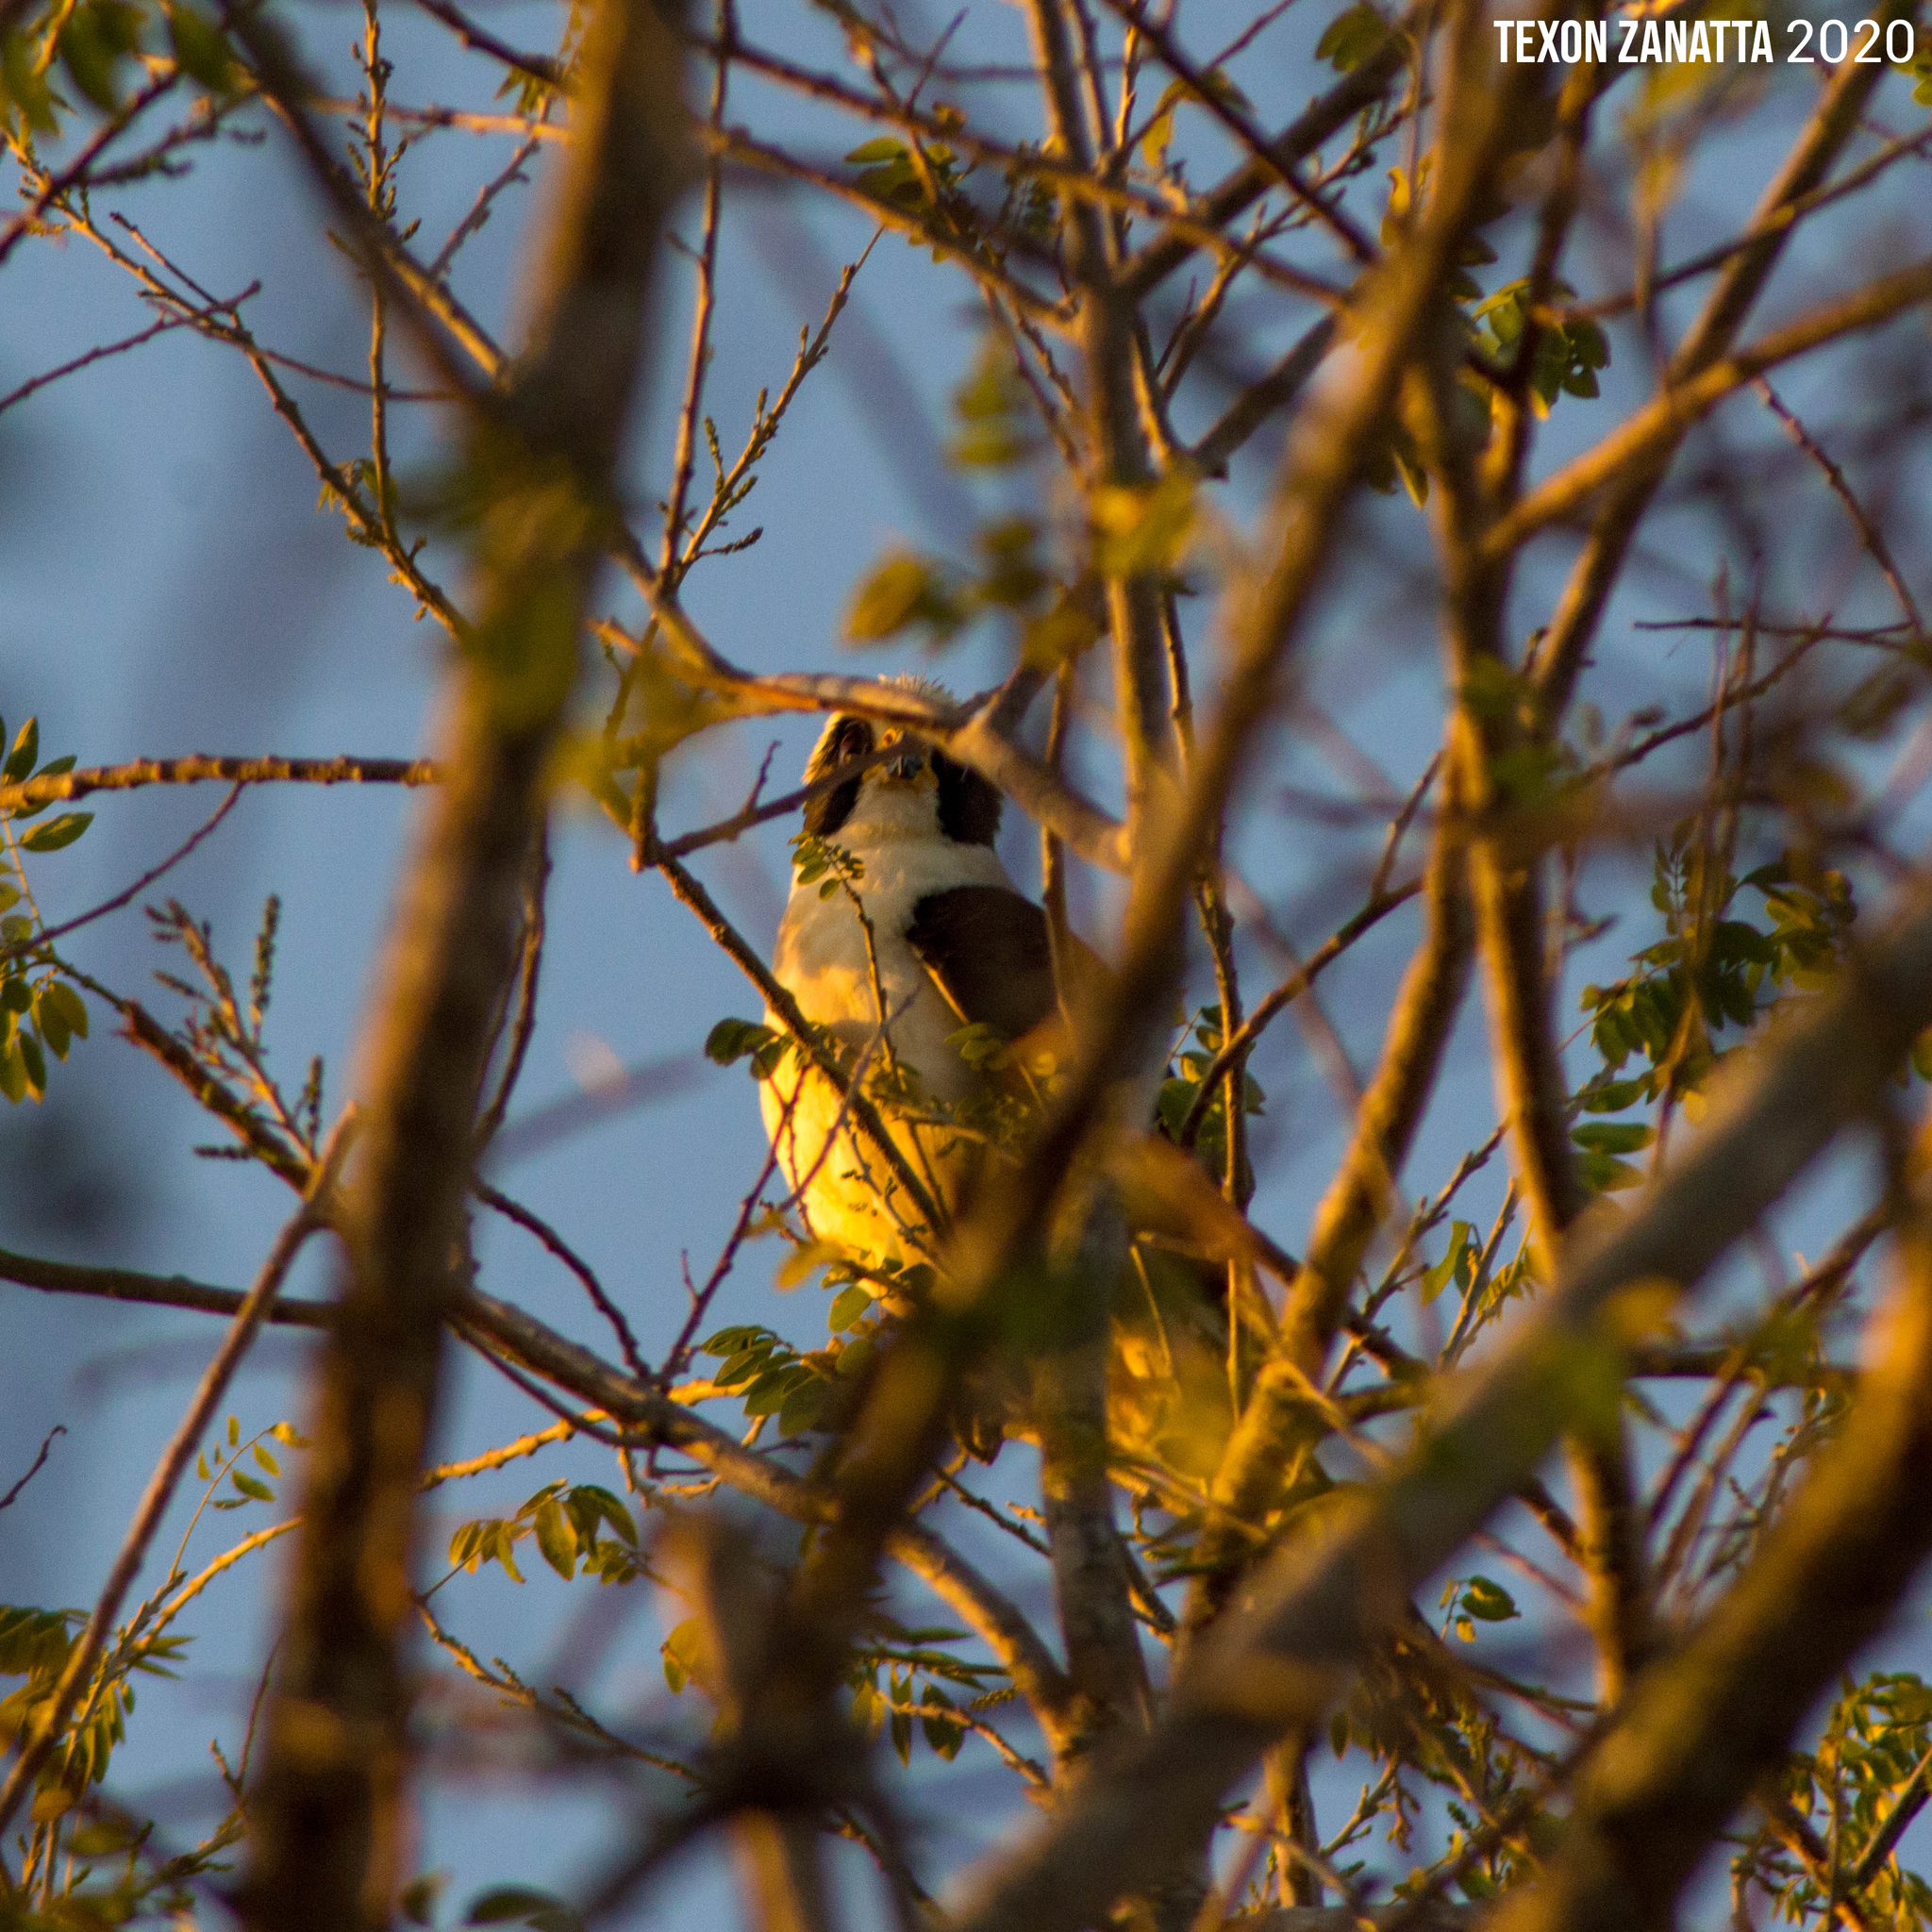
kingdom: Animalia
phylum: Chordata
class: Aves
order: Falconiformes
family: Falconidae
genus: Herpetotheres
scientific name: Herpetotheres cachinnans
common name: Laughing falcon
